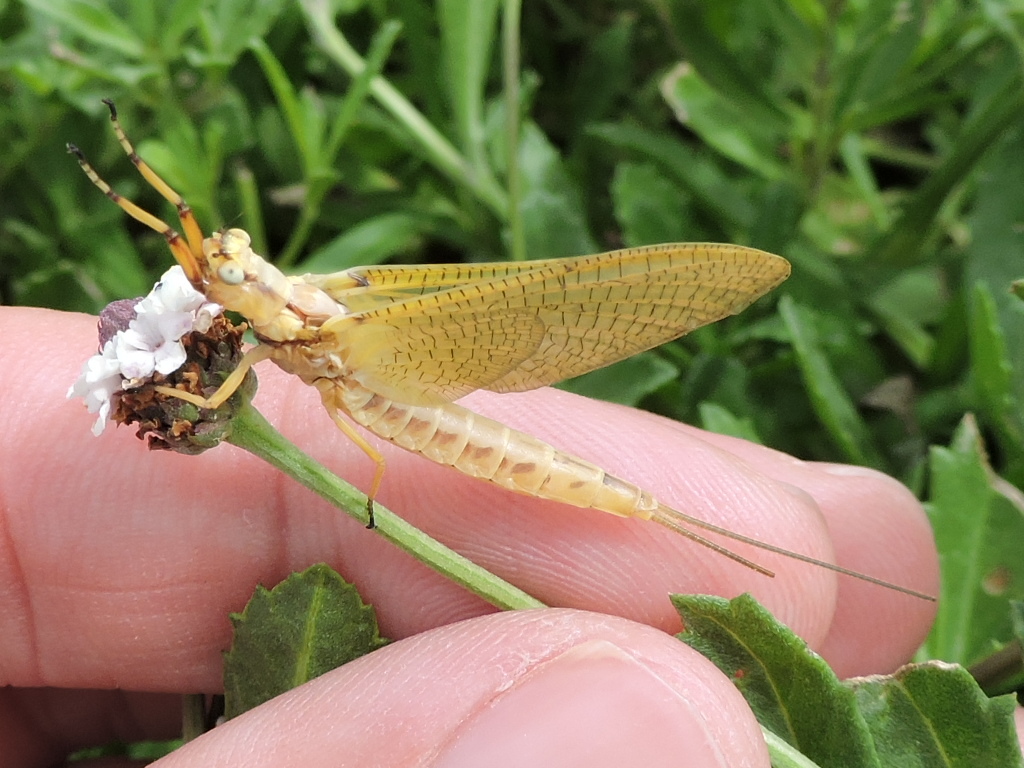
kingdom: Animalia
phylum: Arthropoda
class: Insecta
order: Ephemeroptera
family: Ephemeridae
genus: Hexagenia
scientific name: Hexagenia limbata
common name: Giant mayfly
